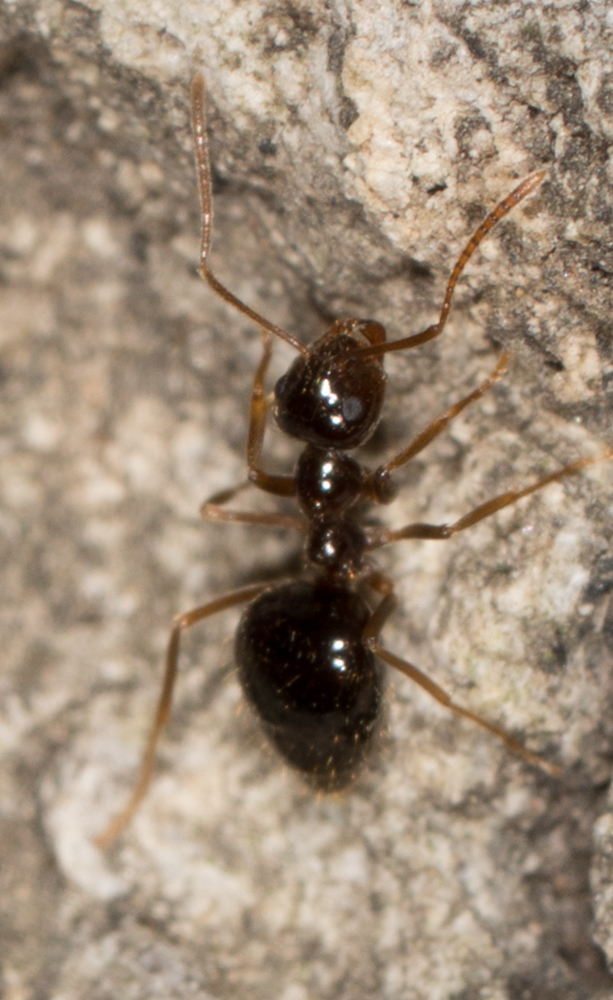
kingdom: Animalia
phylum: Arthropoda
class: Insecta
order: Hymenoptera
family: Formicidae
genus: Prenolepis
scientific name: Prenolepis imparis
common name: Small honey ant
